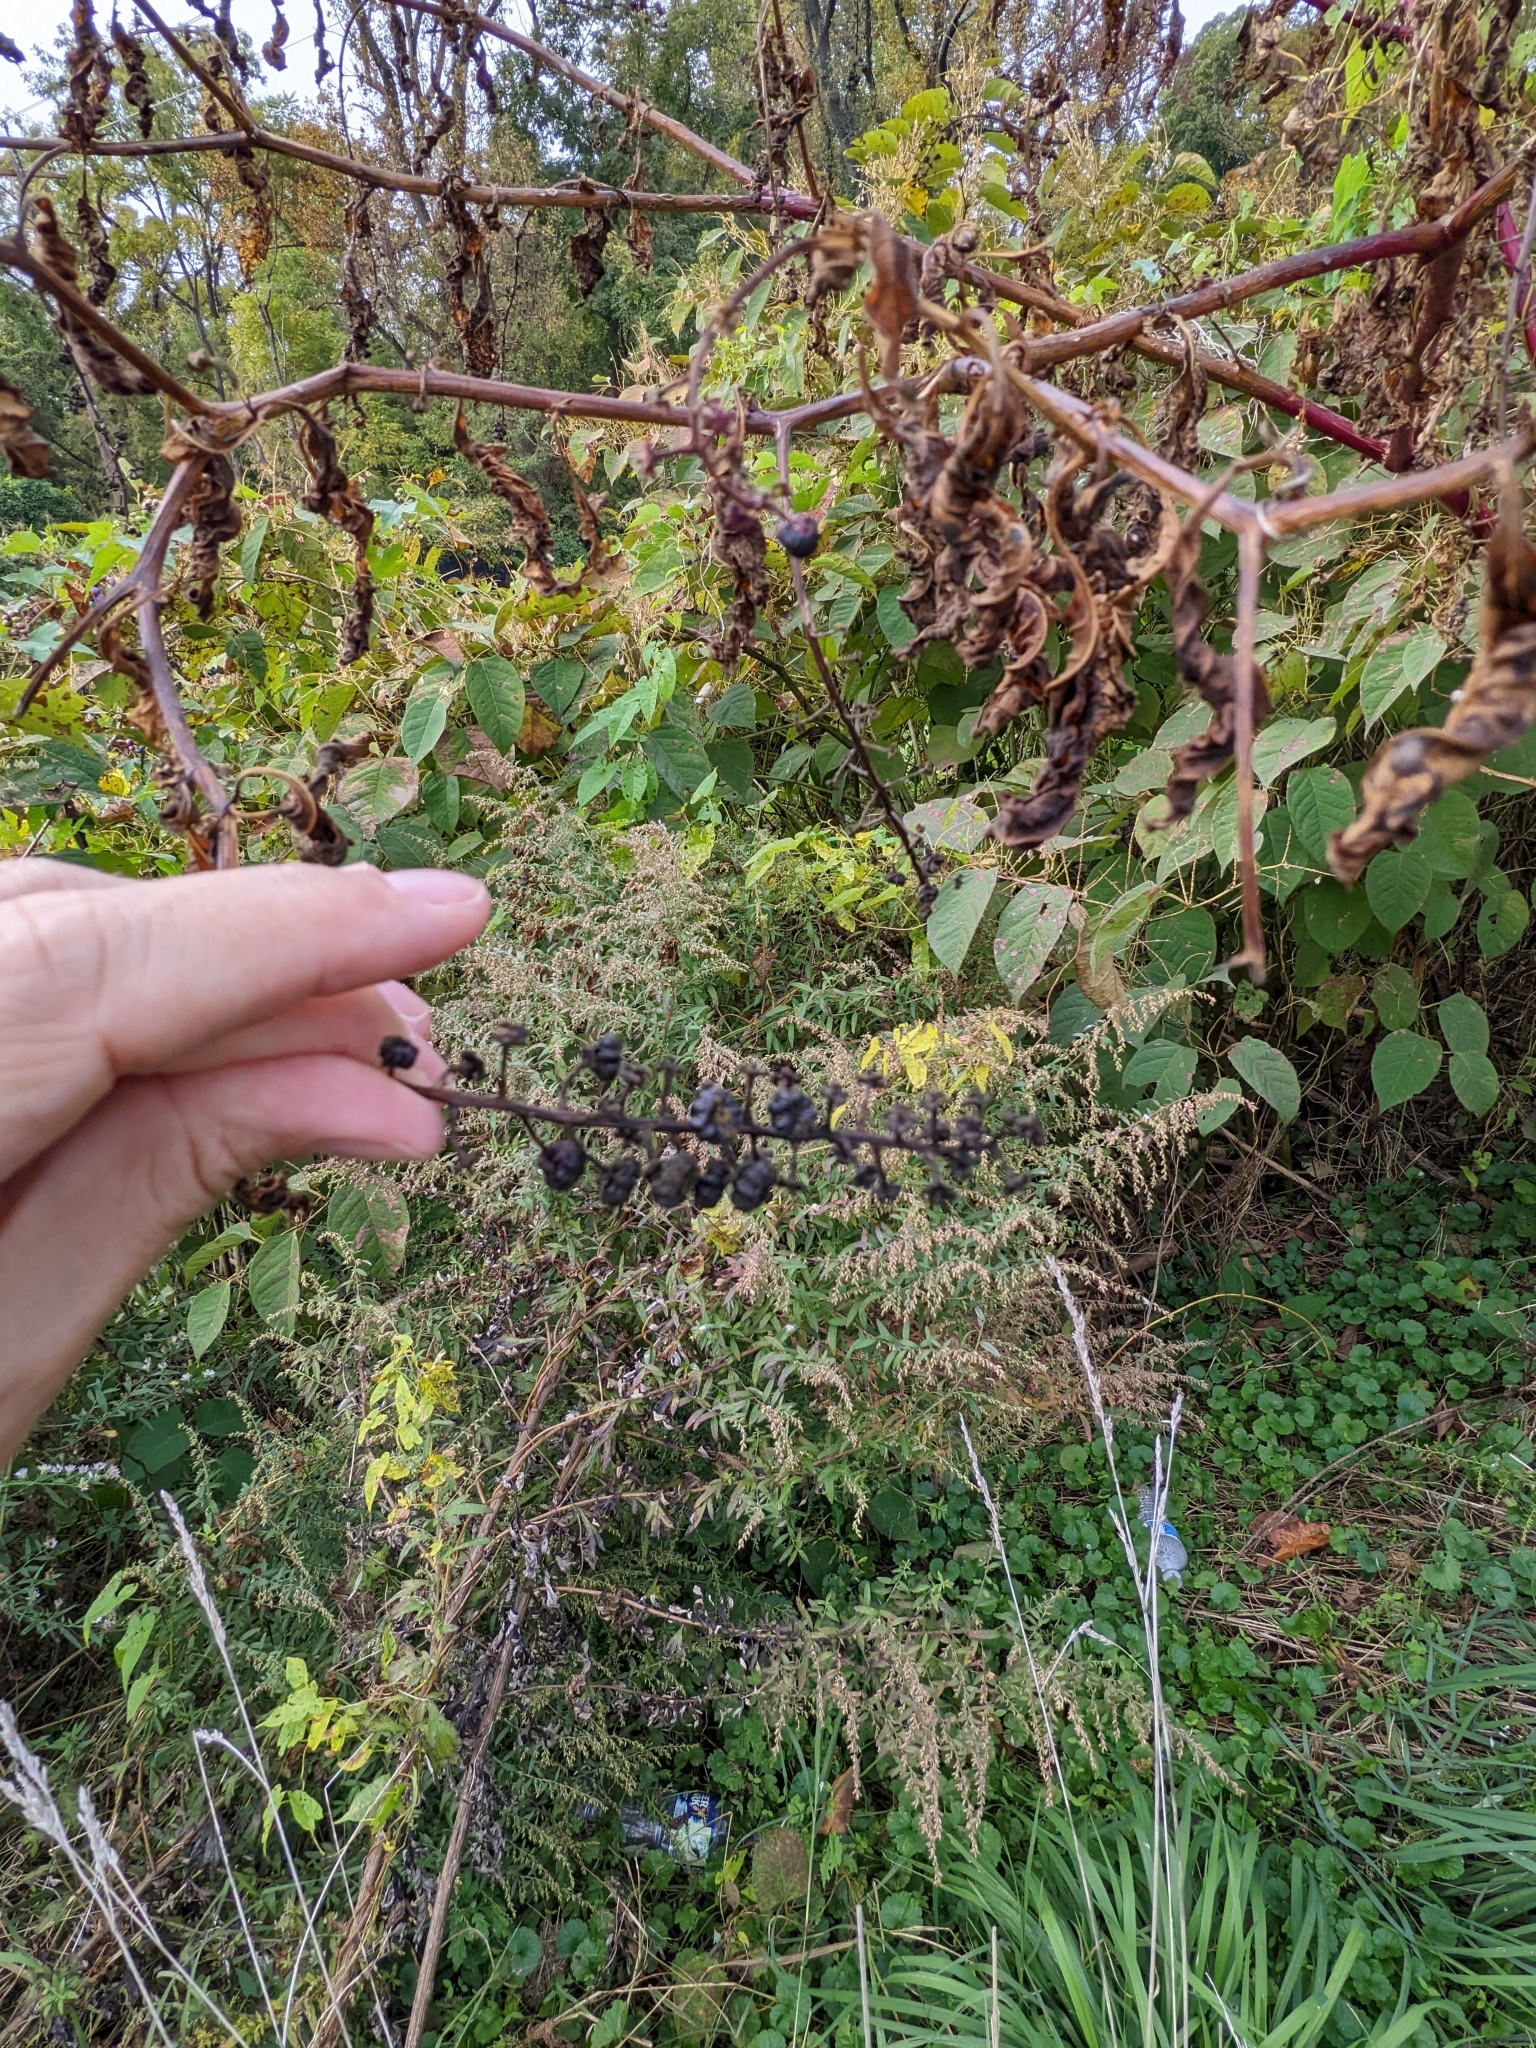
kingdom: Plantae
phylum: Tracheophyta
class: Magnoliopsida
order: Caryophyllales
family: Phytolaccaceae
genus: Phytolacca
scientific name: Phytolacca americana
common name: American pokeweed
